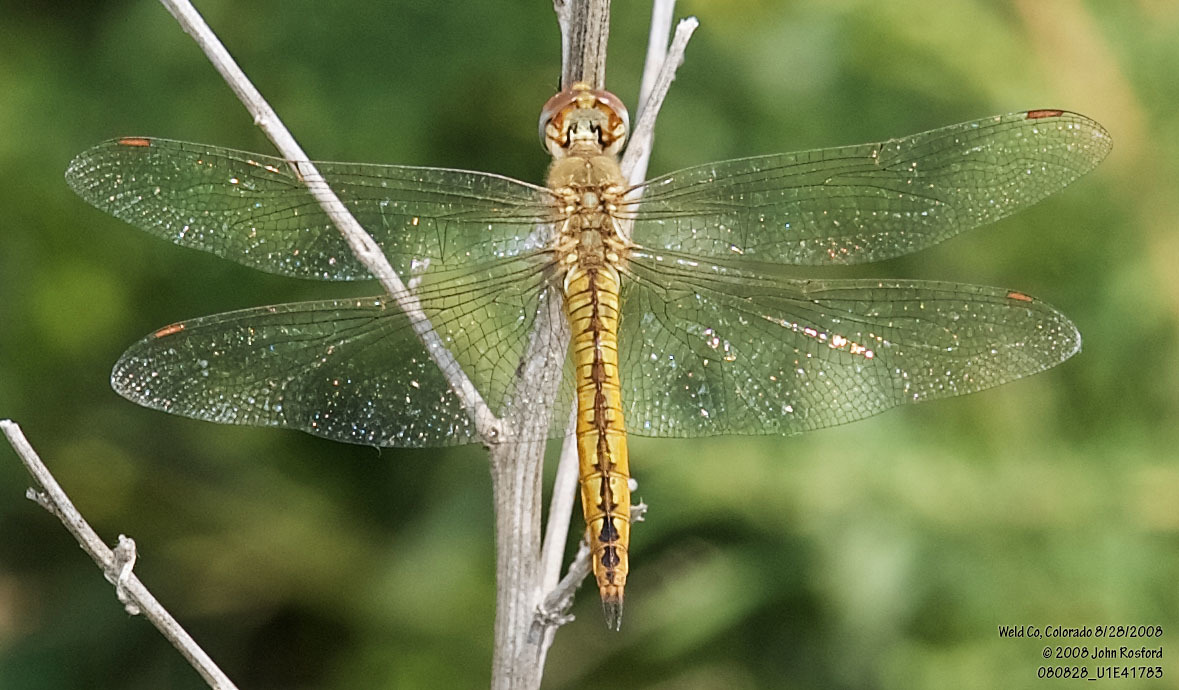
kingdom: Animalia
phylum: Arthropoda
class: Insecta
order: Odonata
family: Libellulidae
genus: Pantala
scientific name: Pantala flavescens
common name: Wandering glider
